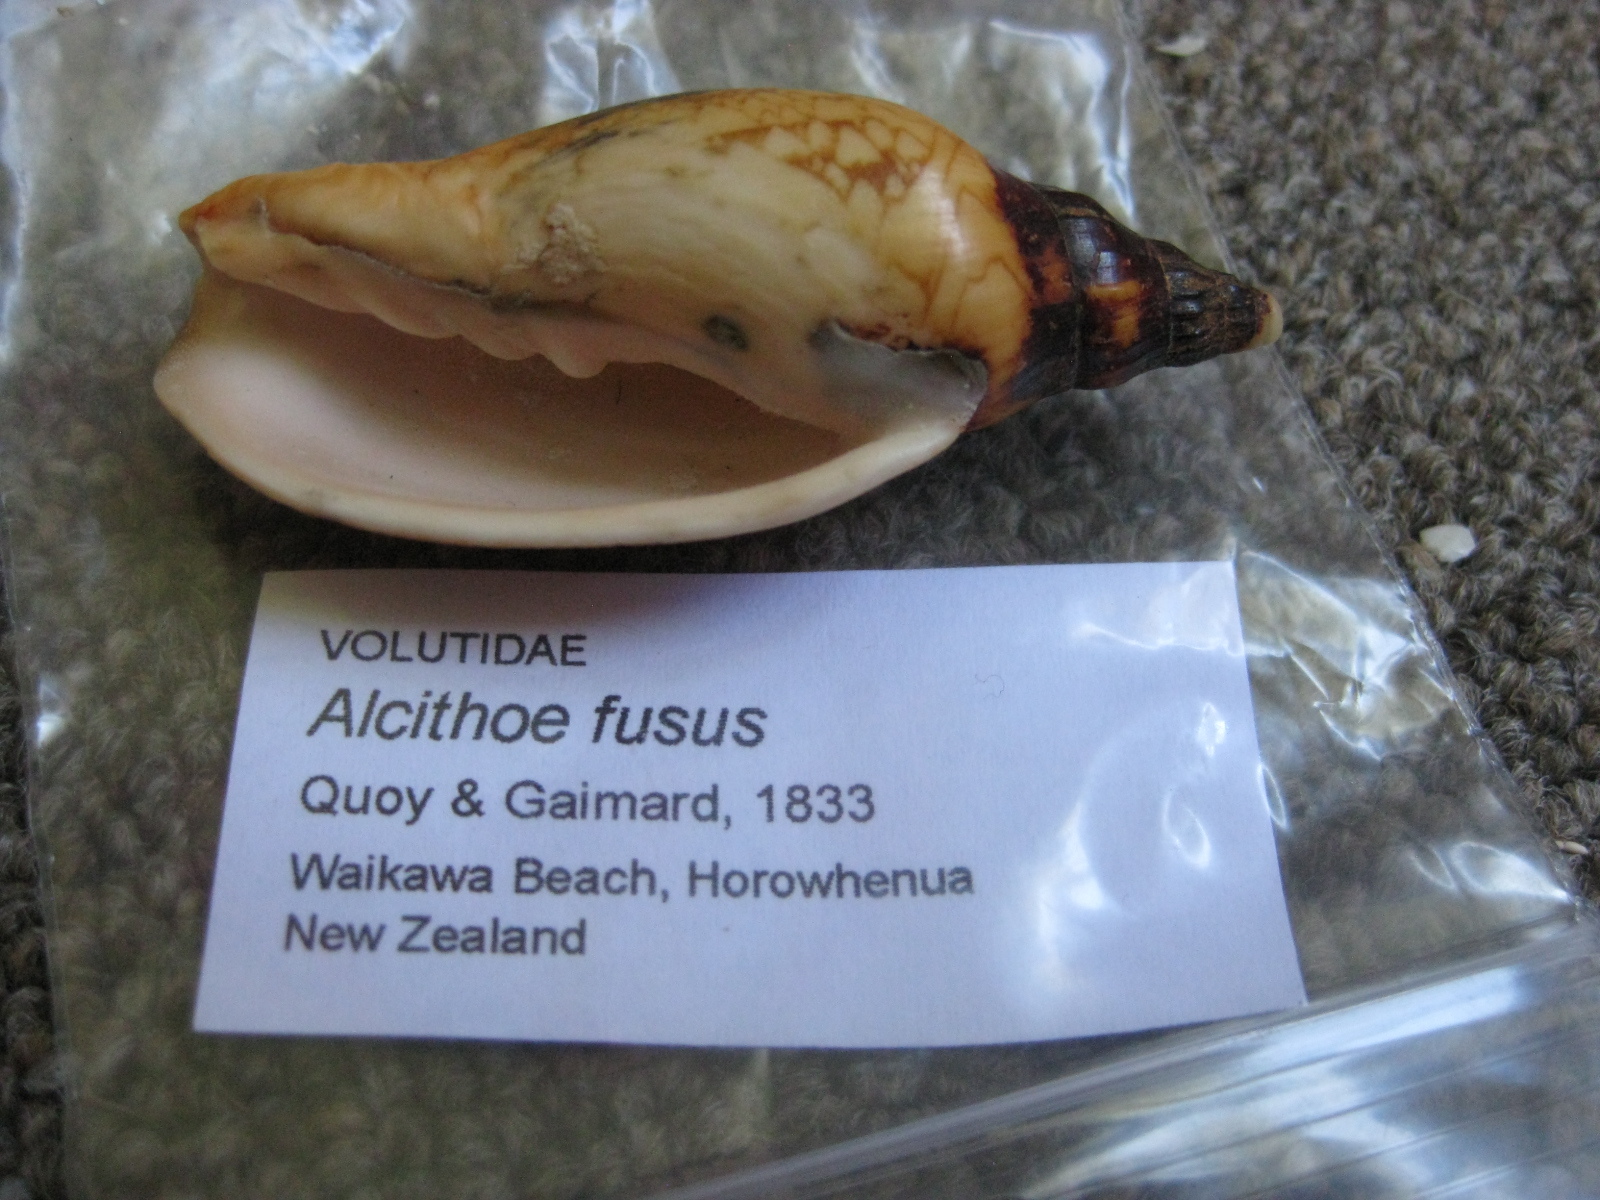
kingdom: Animalia
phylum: Mollusca
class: Gastropoda
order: Neogastropoda
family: Volutidae
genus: Alcithoe
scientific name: Alcithoe fusus
